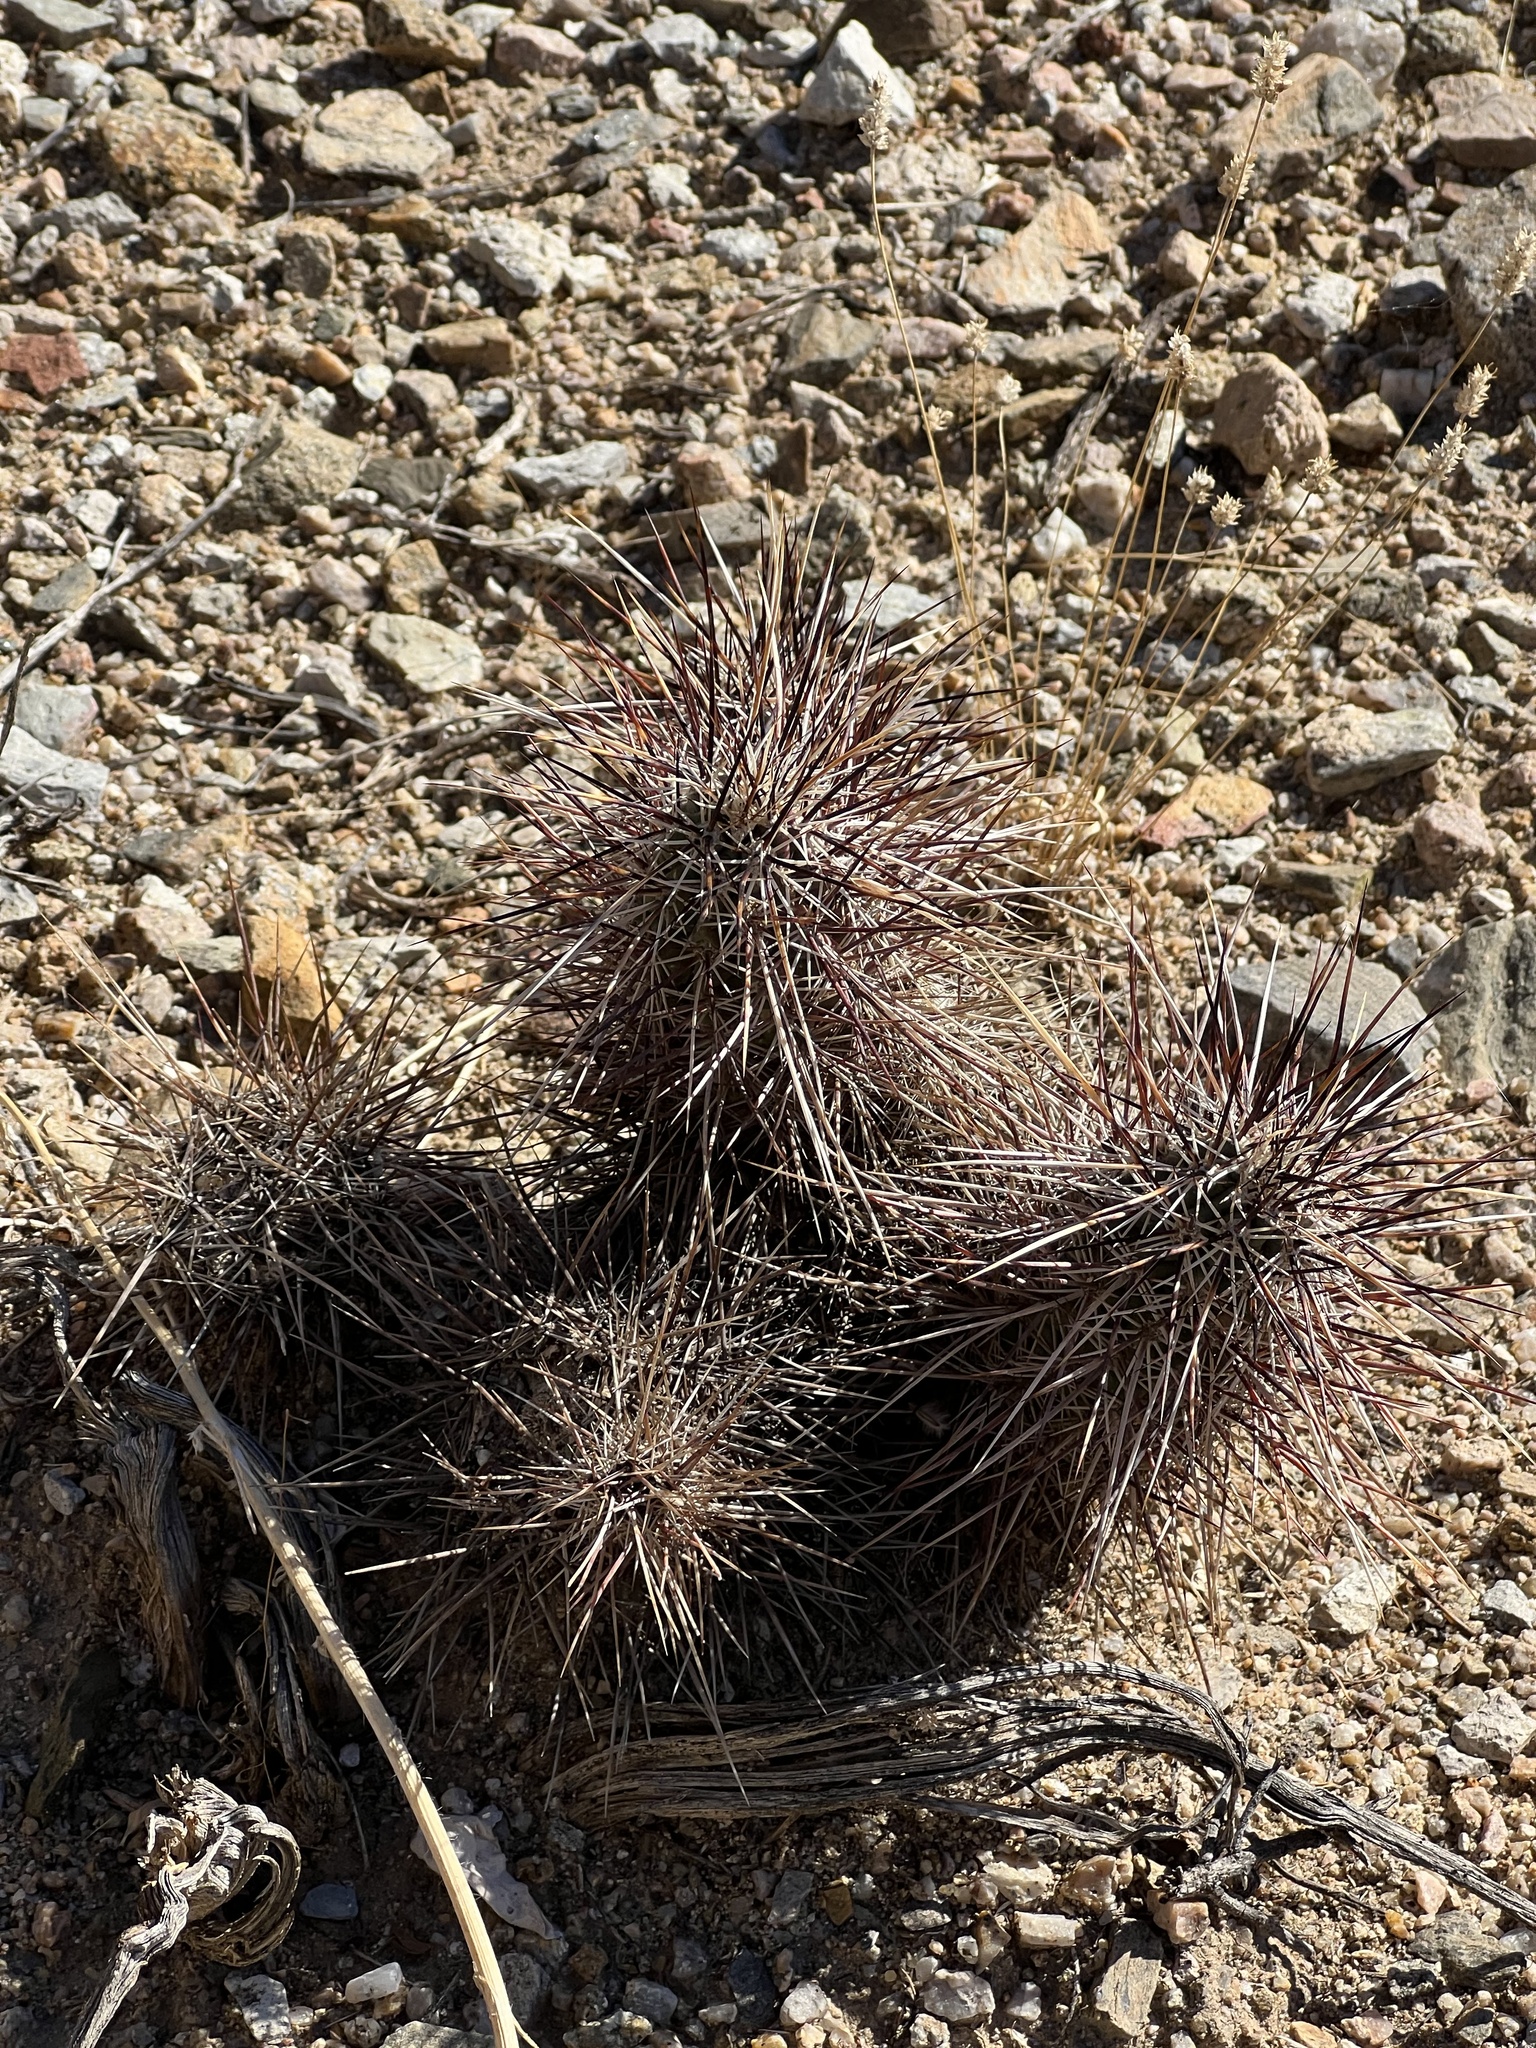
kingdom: Plantae
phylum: Tracheophyta
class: Magnoliopsida
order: Caryophyllales
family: Cactaceae
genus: Echinocereus
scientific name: Echinocereus engelmannii
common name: Engelmann's hedgehog cactus
